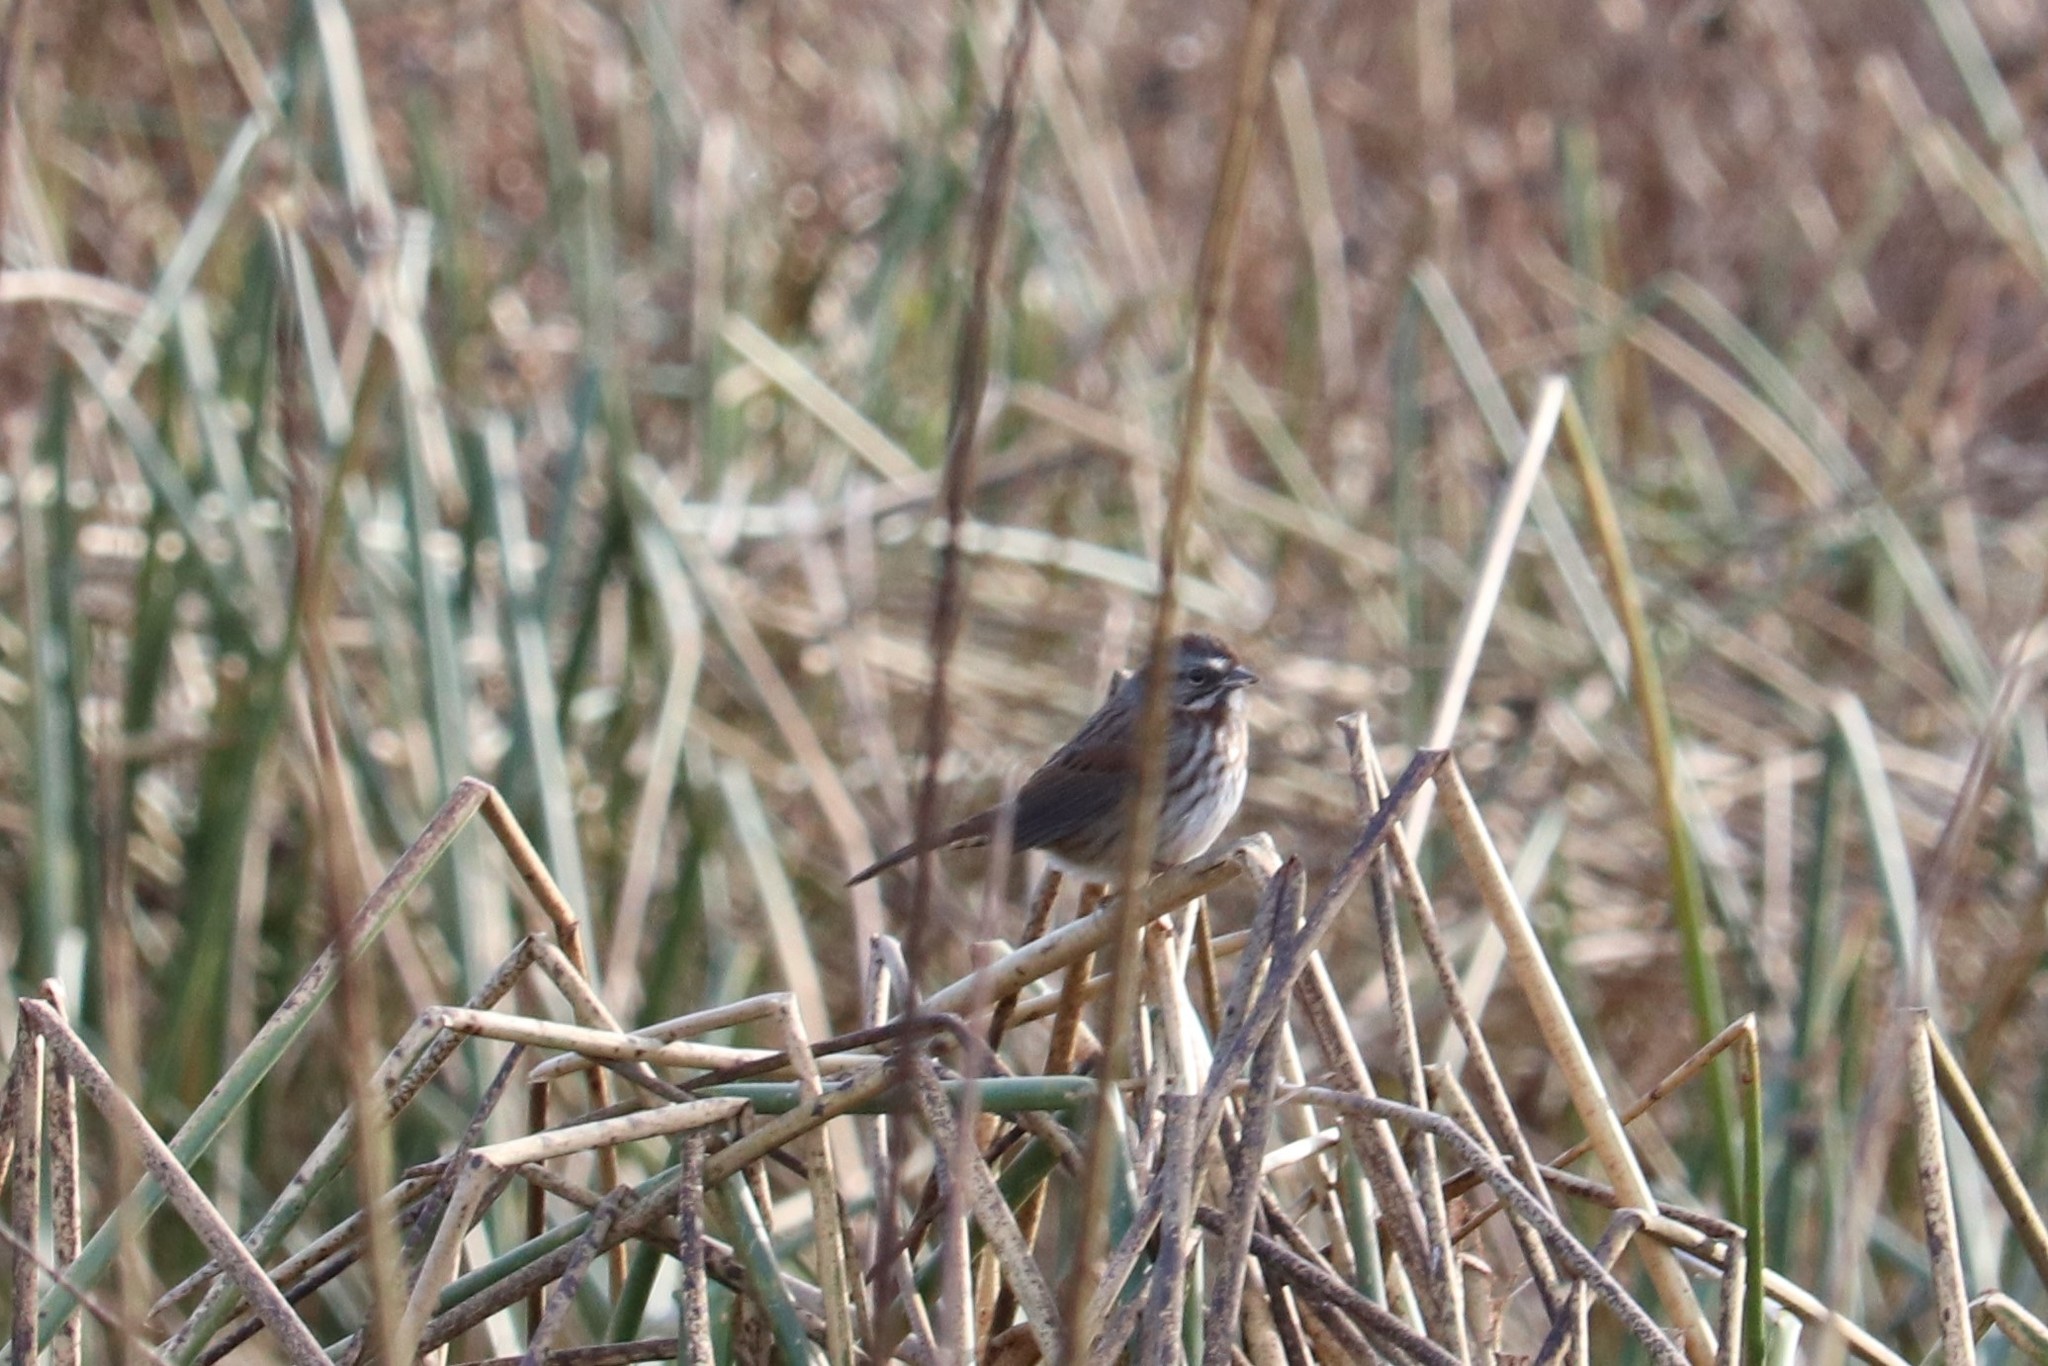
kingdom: Animalia
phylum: Chordata
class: Aves
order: Passeriformes
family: Passerellidae
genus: Melospiza
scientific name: Melospiza melodia
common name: Song sparrow
